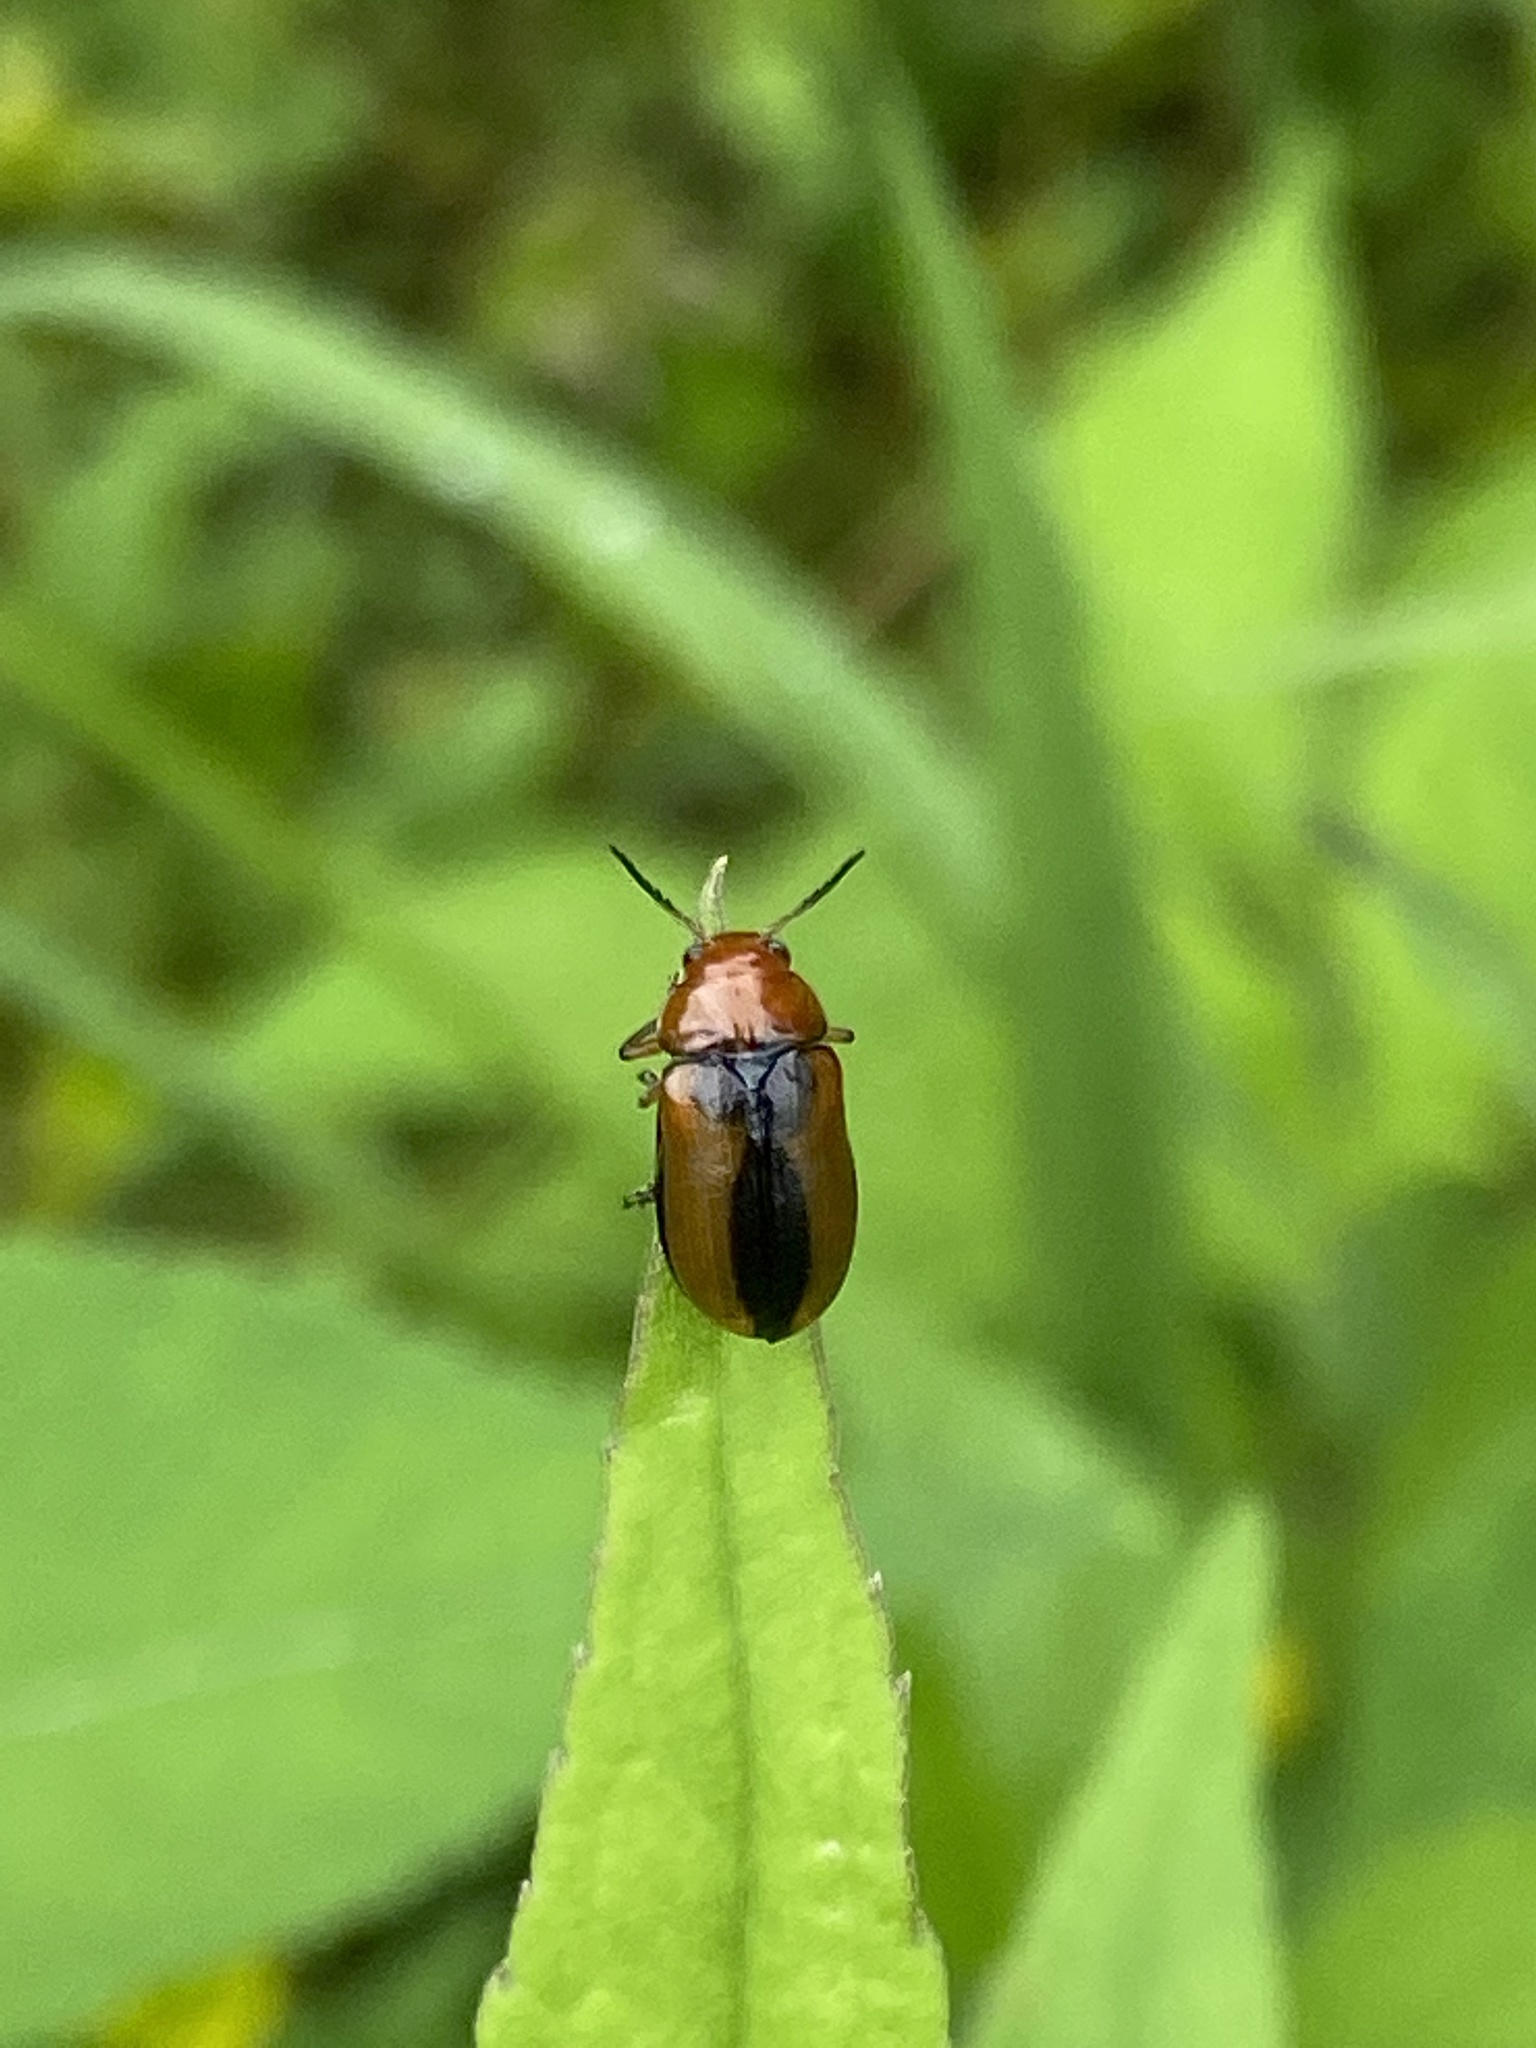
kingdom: Animalia
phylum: Arthropoda
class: Insecta
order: Coleoptera
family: Chrysomelidae
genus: Anomoea
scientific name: Anomoea laticlavia
